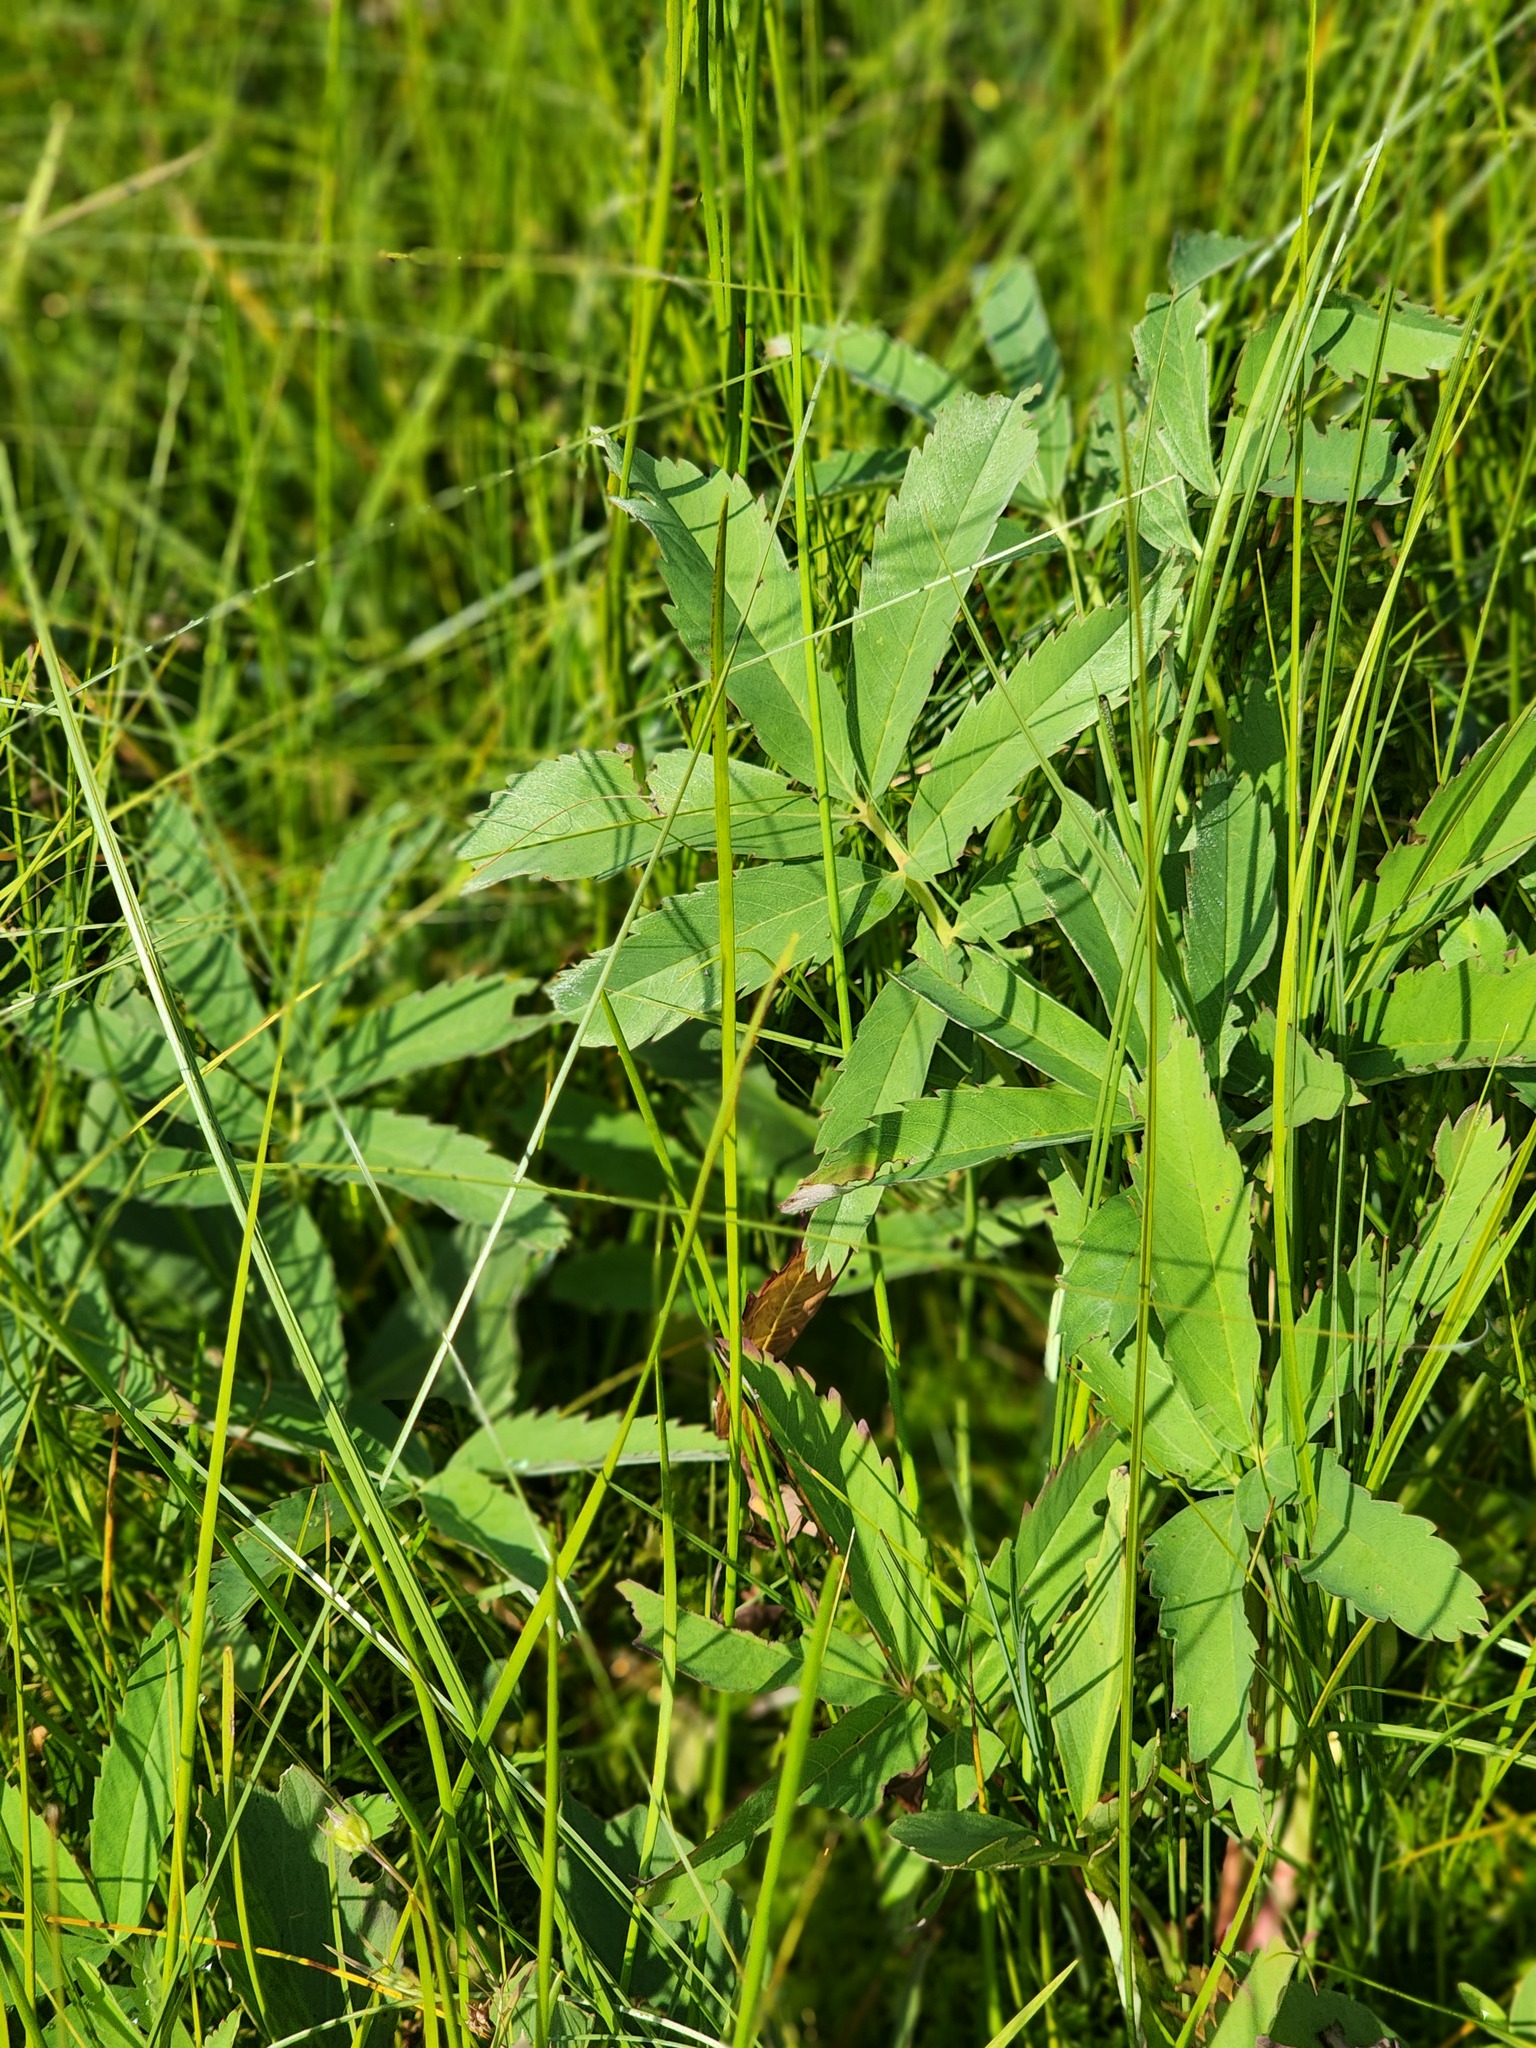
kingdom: Plantae
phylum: Tracheophyta
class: Magnoliopsida
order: Rosales
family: Rosaceae
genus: Comarum
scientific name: Comarum palustre
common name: Marsh cinquefoil
